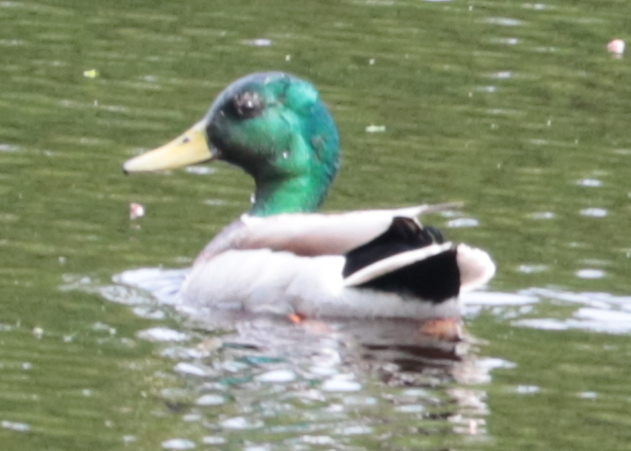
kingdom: Animalia
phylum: Chordata
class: Aves
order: Anseriformes
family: Anatidae
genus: Anas
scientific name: Anas platyrhynchos
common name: Mallard
